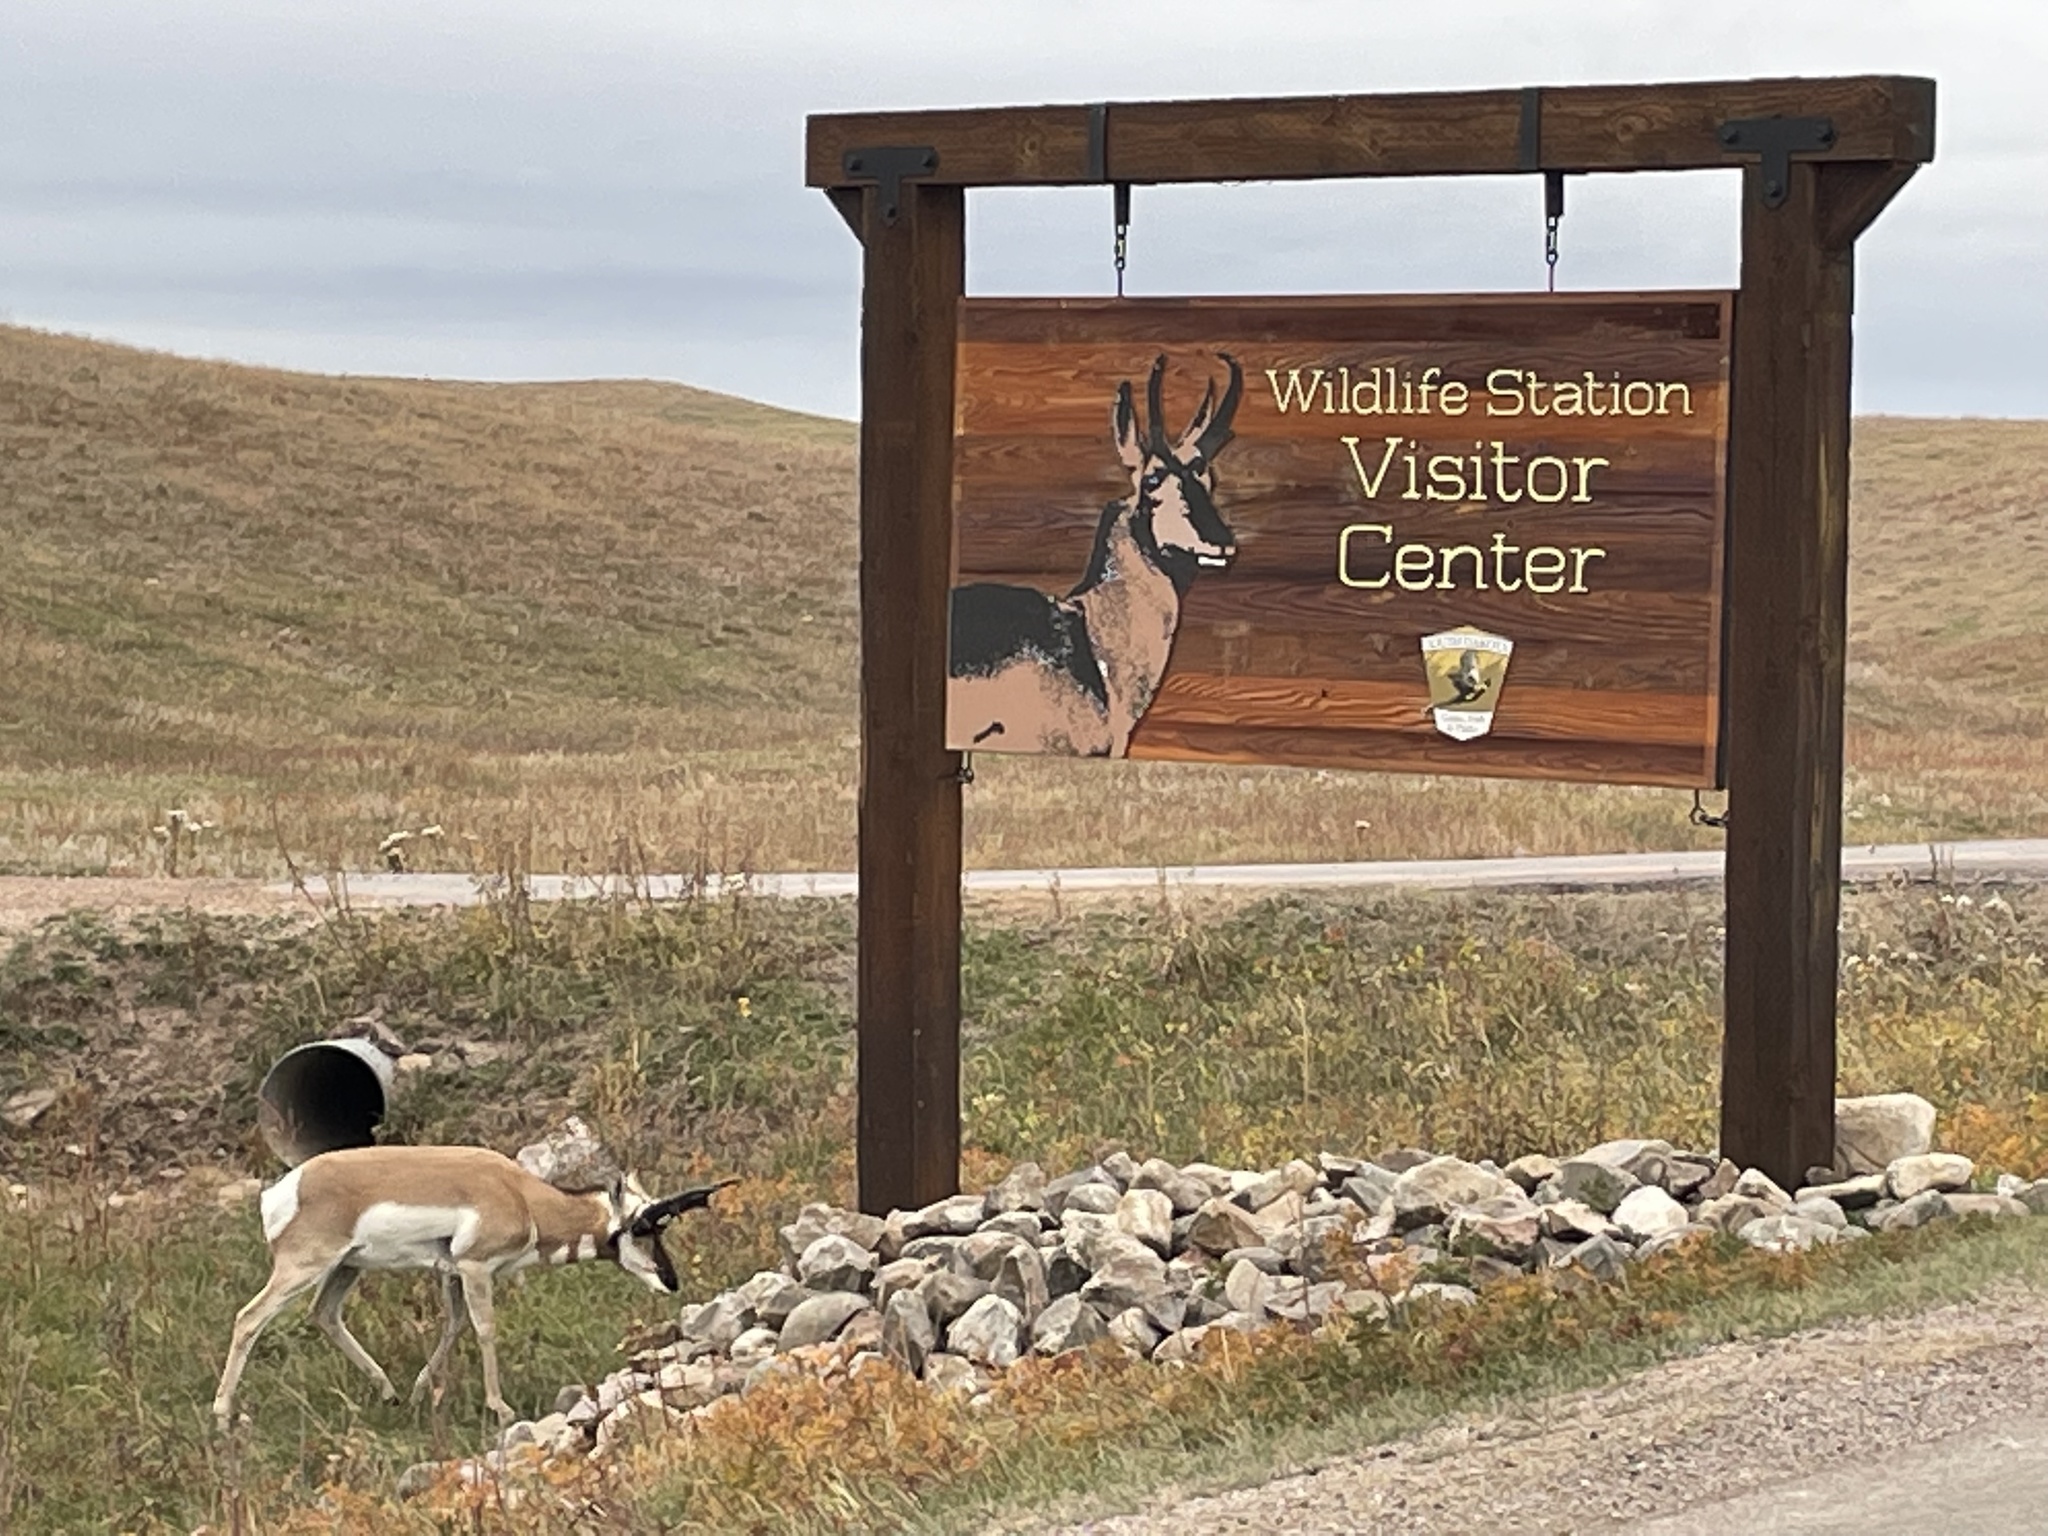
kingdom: Animalia
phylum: Chordata
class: Mammalia
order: Artiodactyla
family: Antilocapridae
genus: Antilocapra
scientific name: Antilocapra americana
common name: Pronghorn
